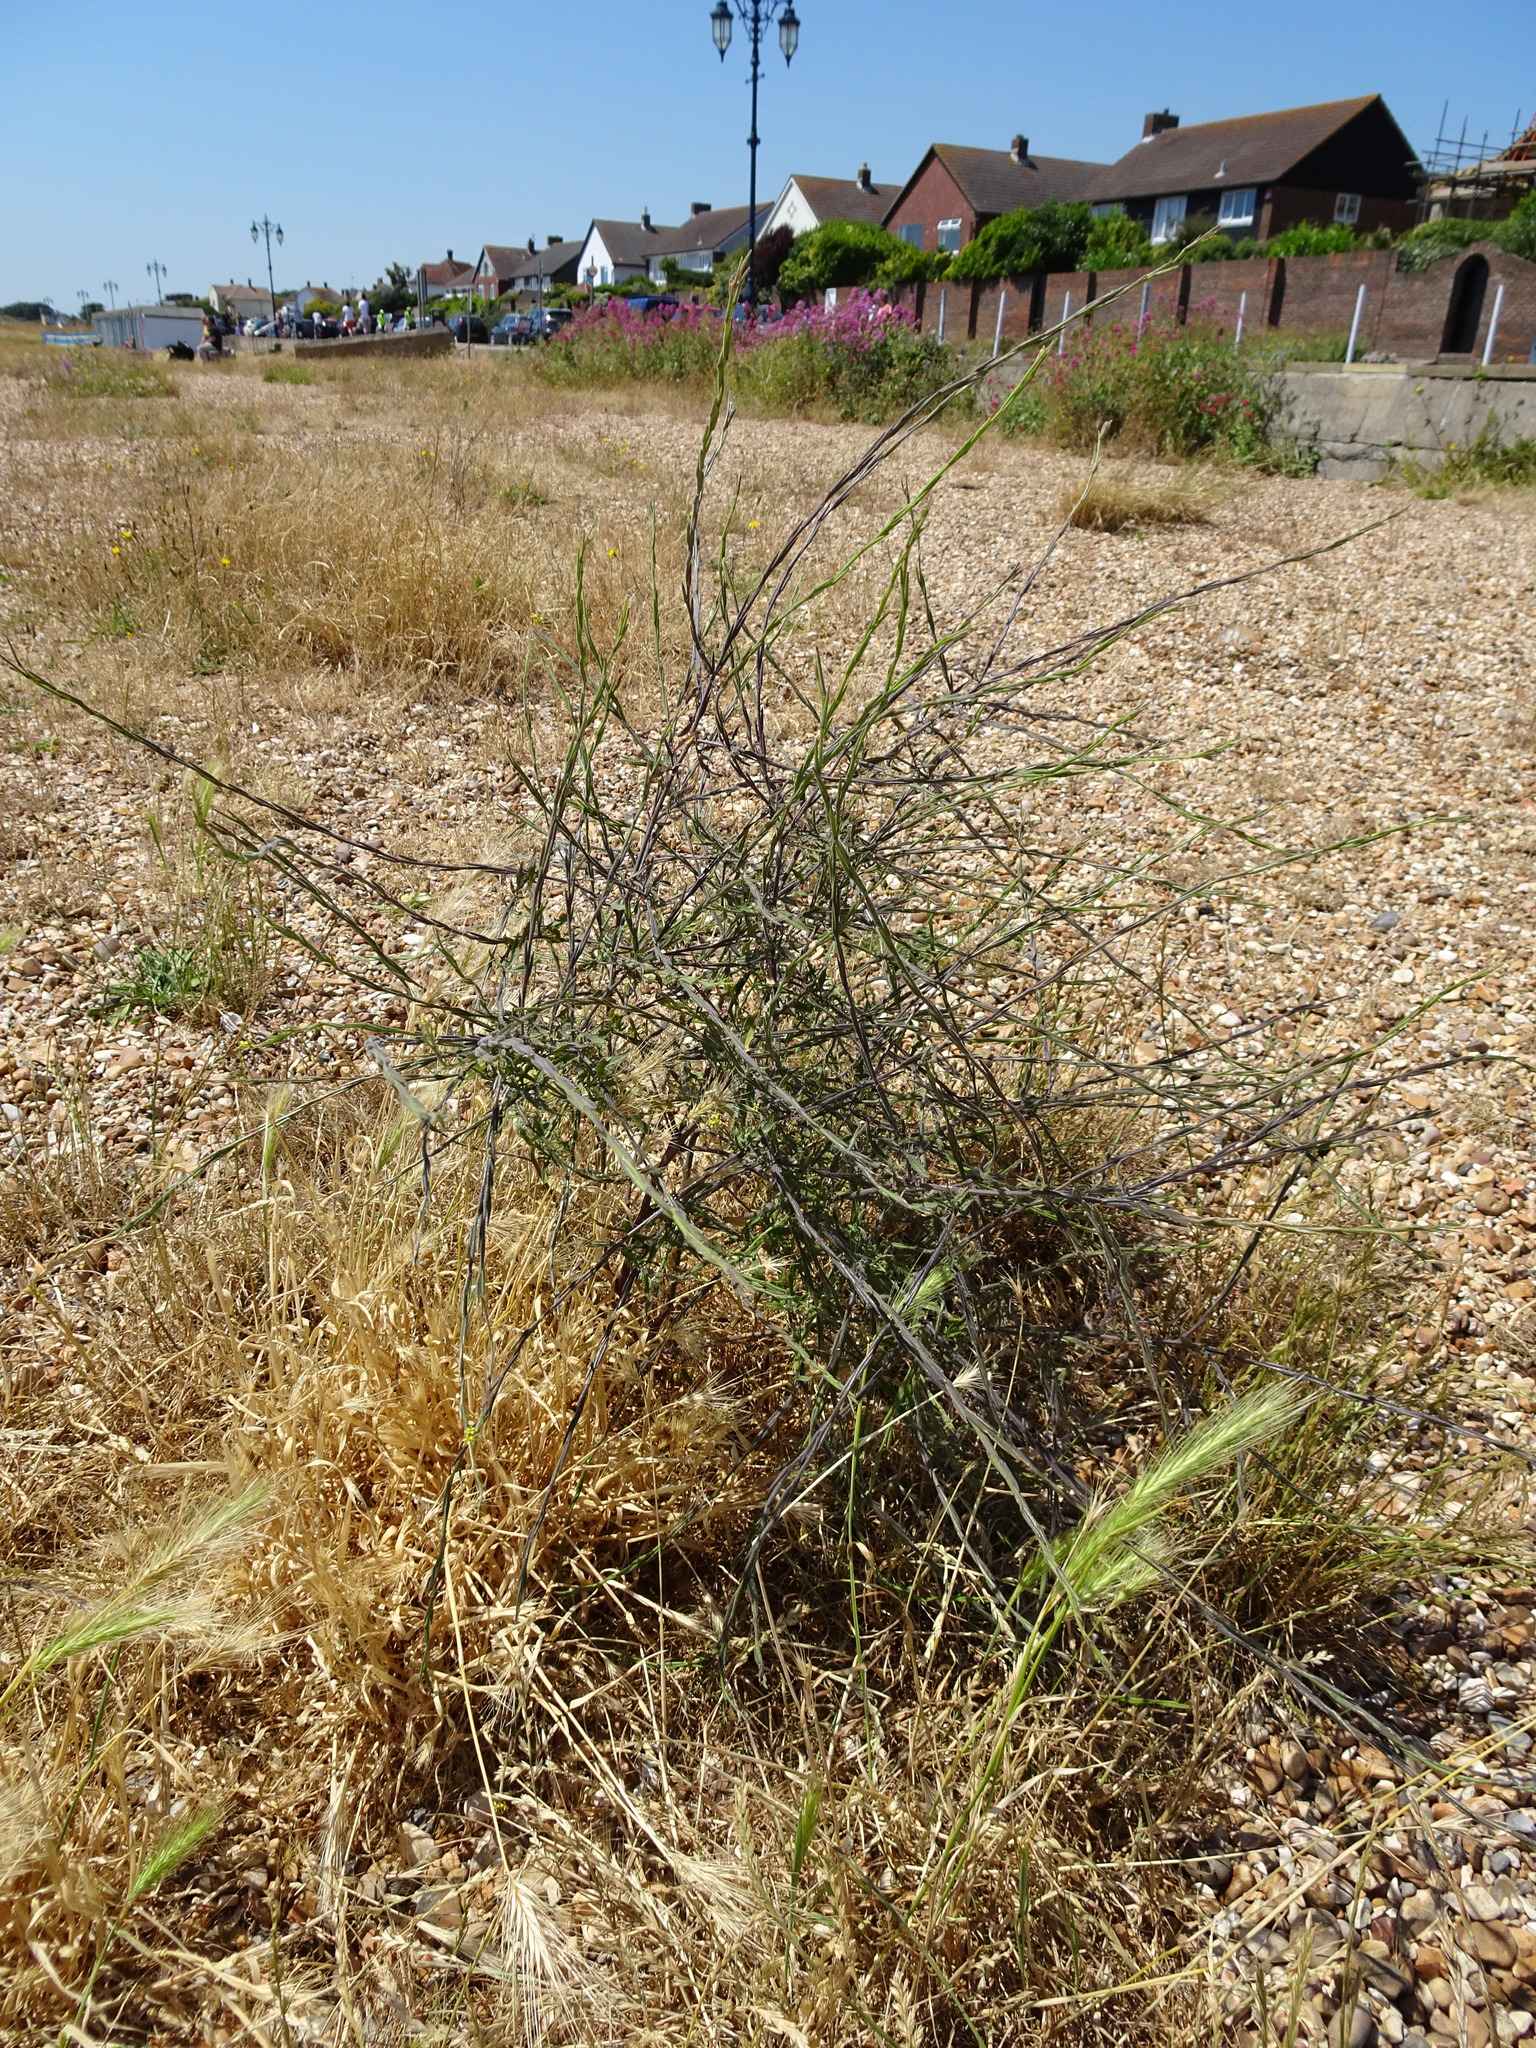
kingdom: Plantae
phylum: Tracheophyta
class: Magnoliopsida
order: Brassicales
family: Brassicaceae
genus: Sisymbrium
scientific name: Sisymbrium officinale
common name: Hedge mustard
